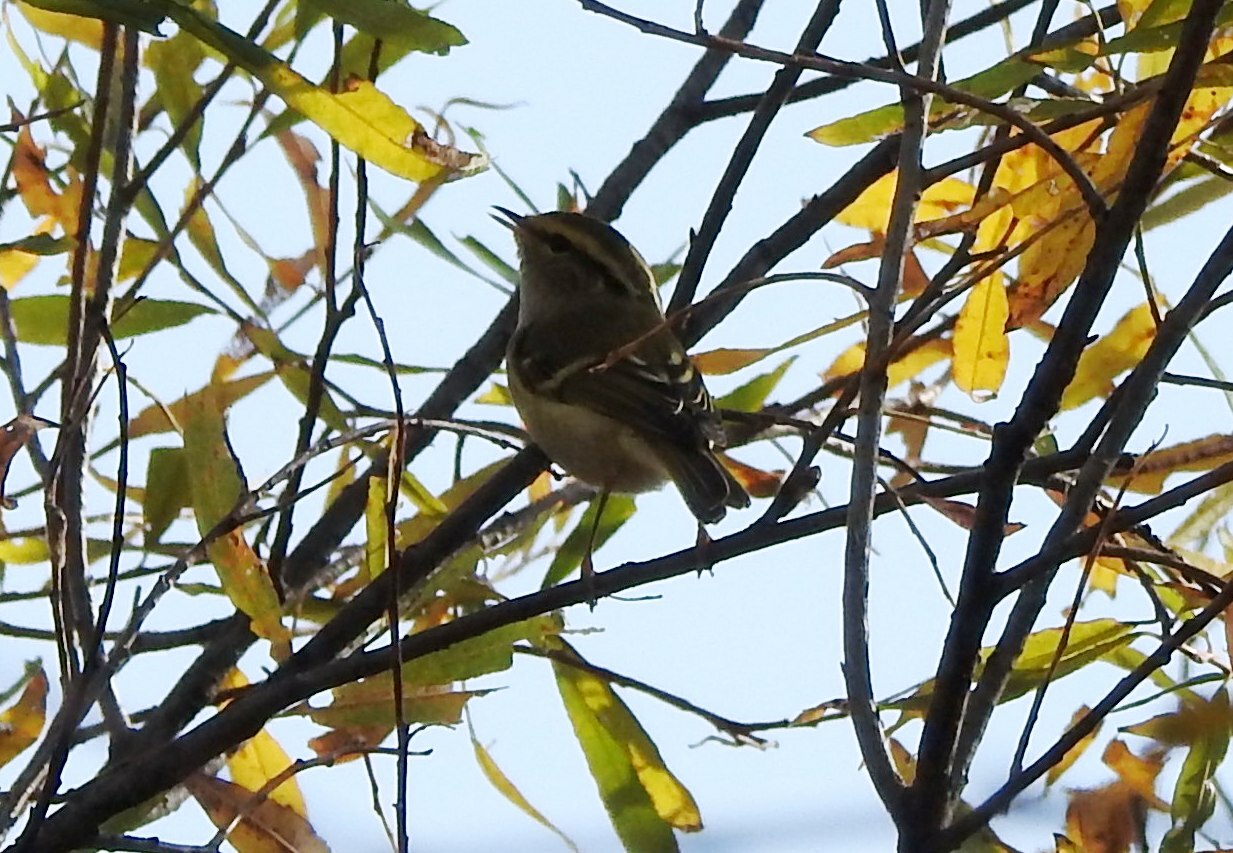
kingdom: Animalia
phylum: Chordata
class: Aves
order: Passeriformes
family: Phylloscopidae
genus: Phylloscopus
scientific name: Phylloscopus proregulus
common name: Pallas's leaf warbler
